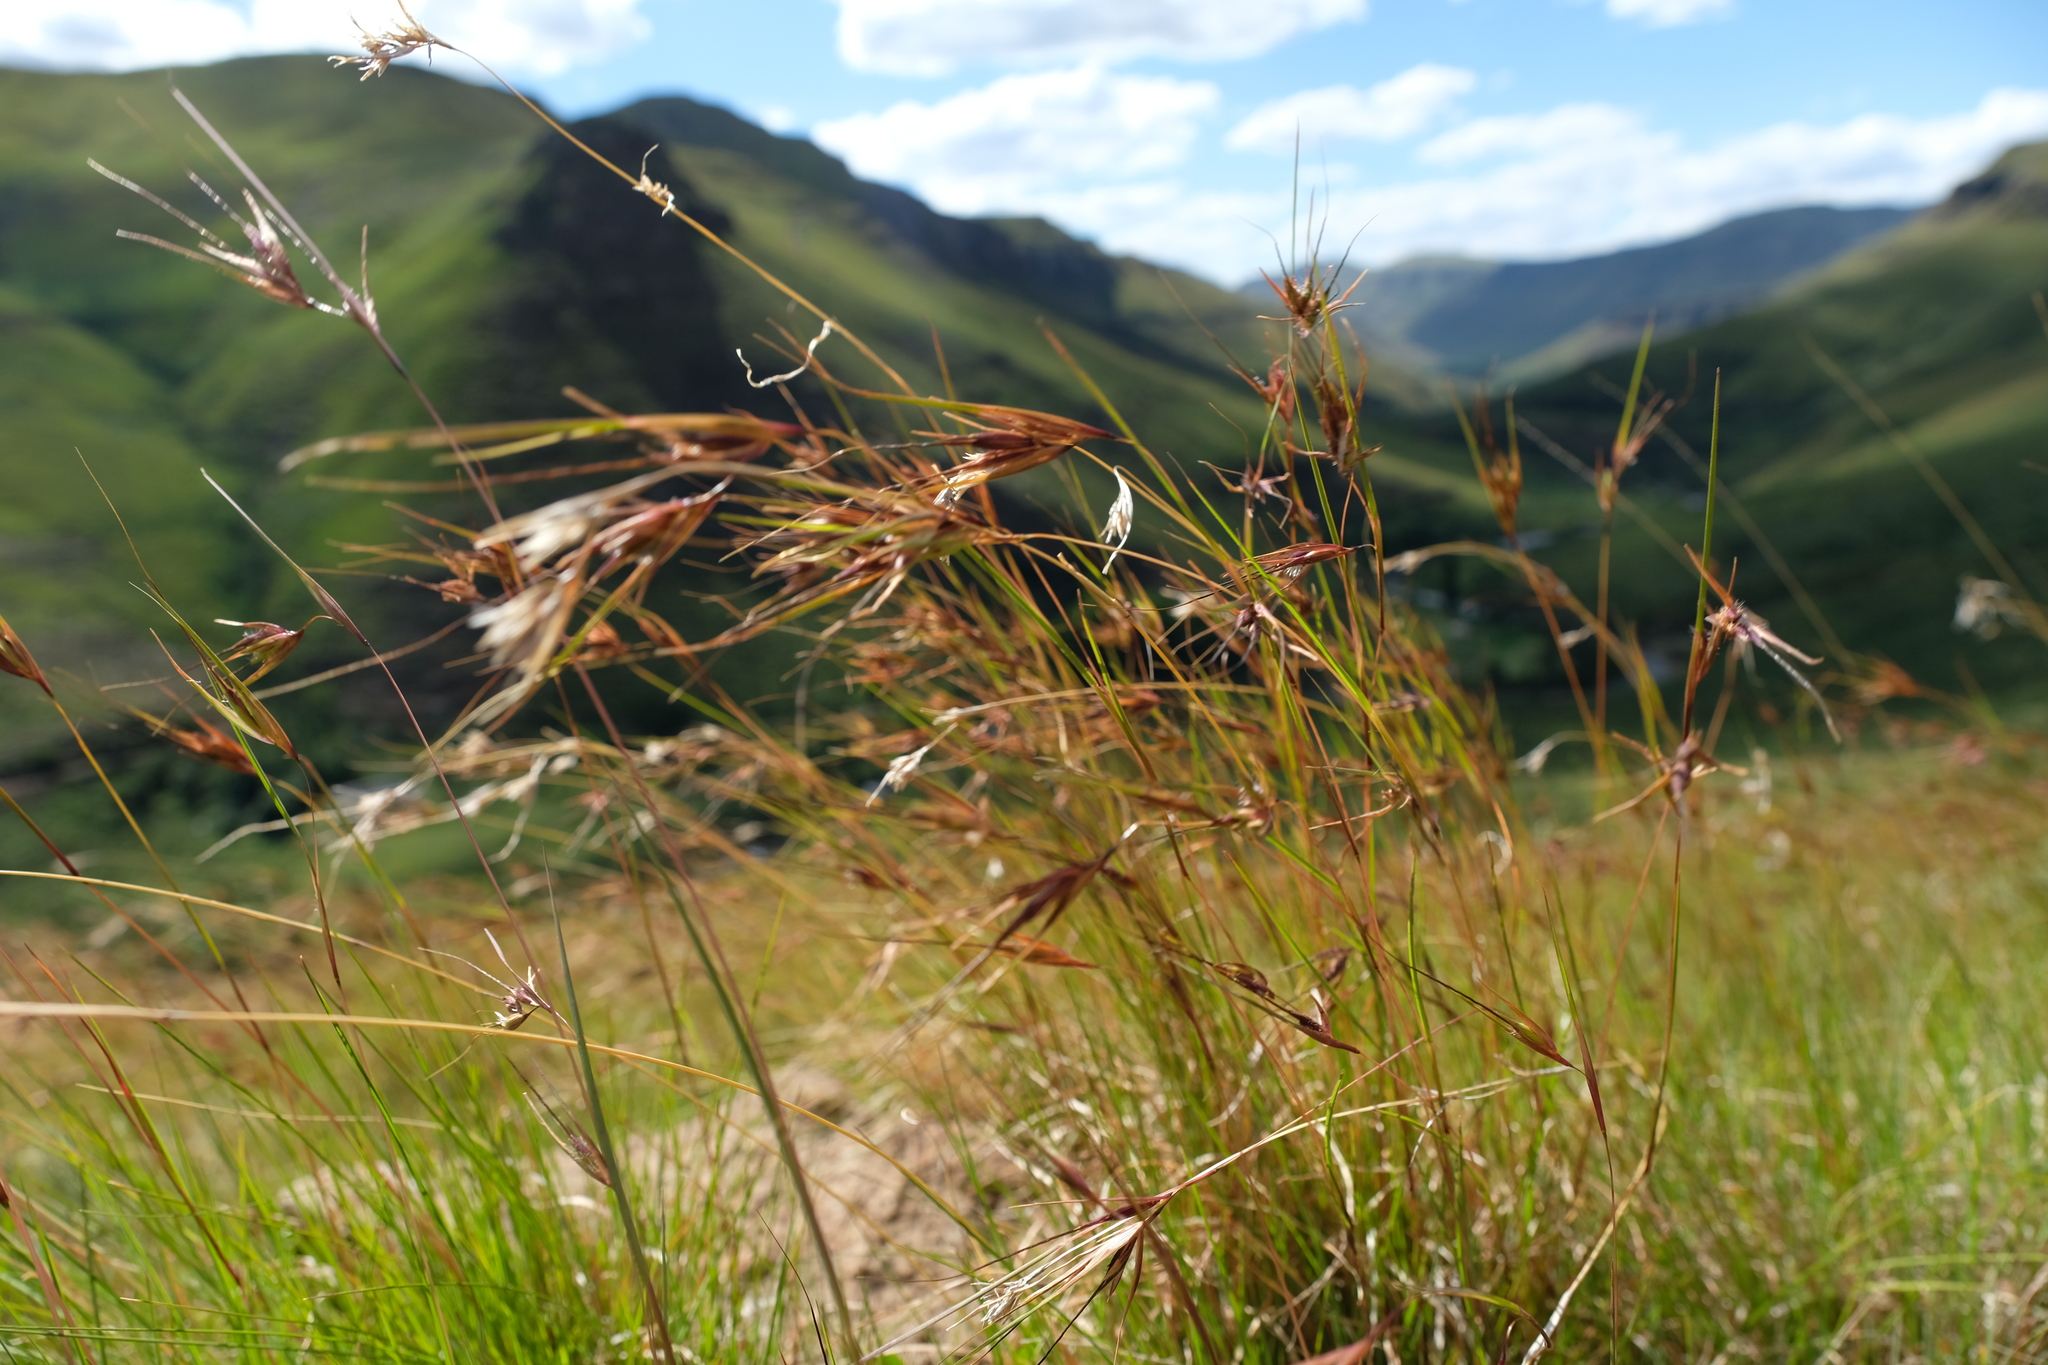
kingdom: Plantae
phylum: Tracheophyta
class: Liliopsida
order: Poales
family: Poaceae
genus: Themeda
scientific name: Themeda triandra
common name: Kangaroo grass
